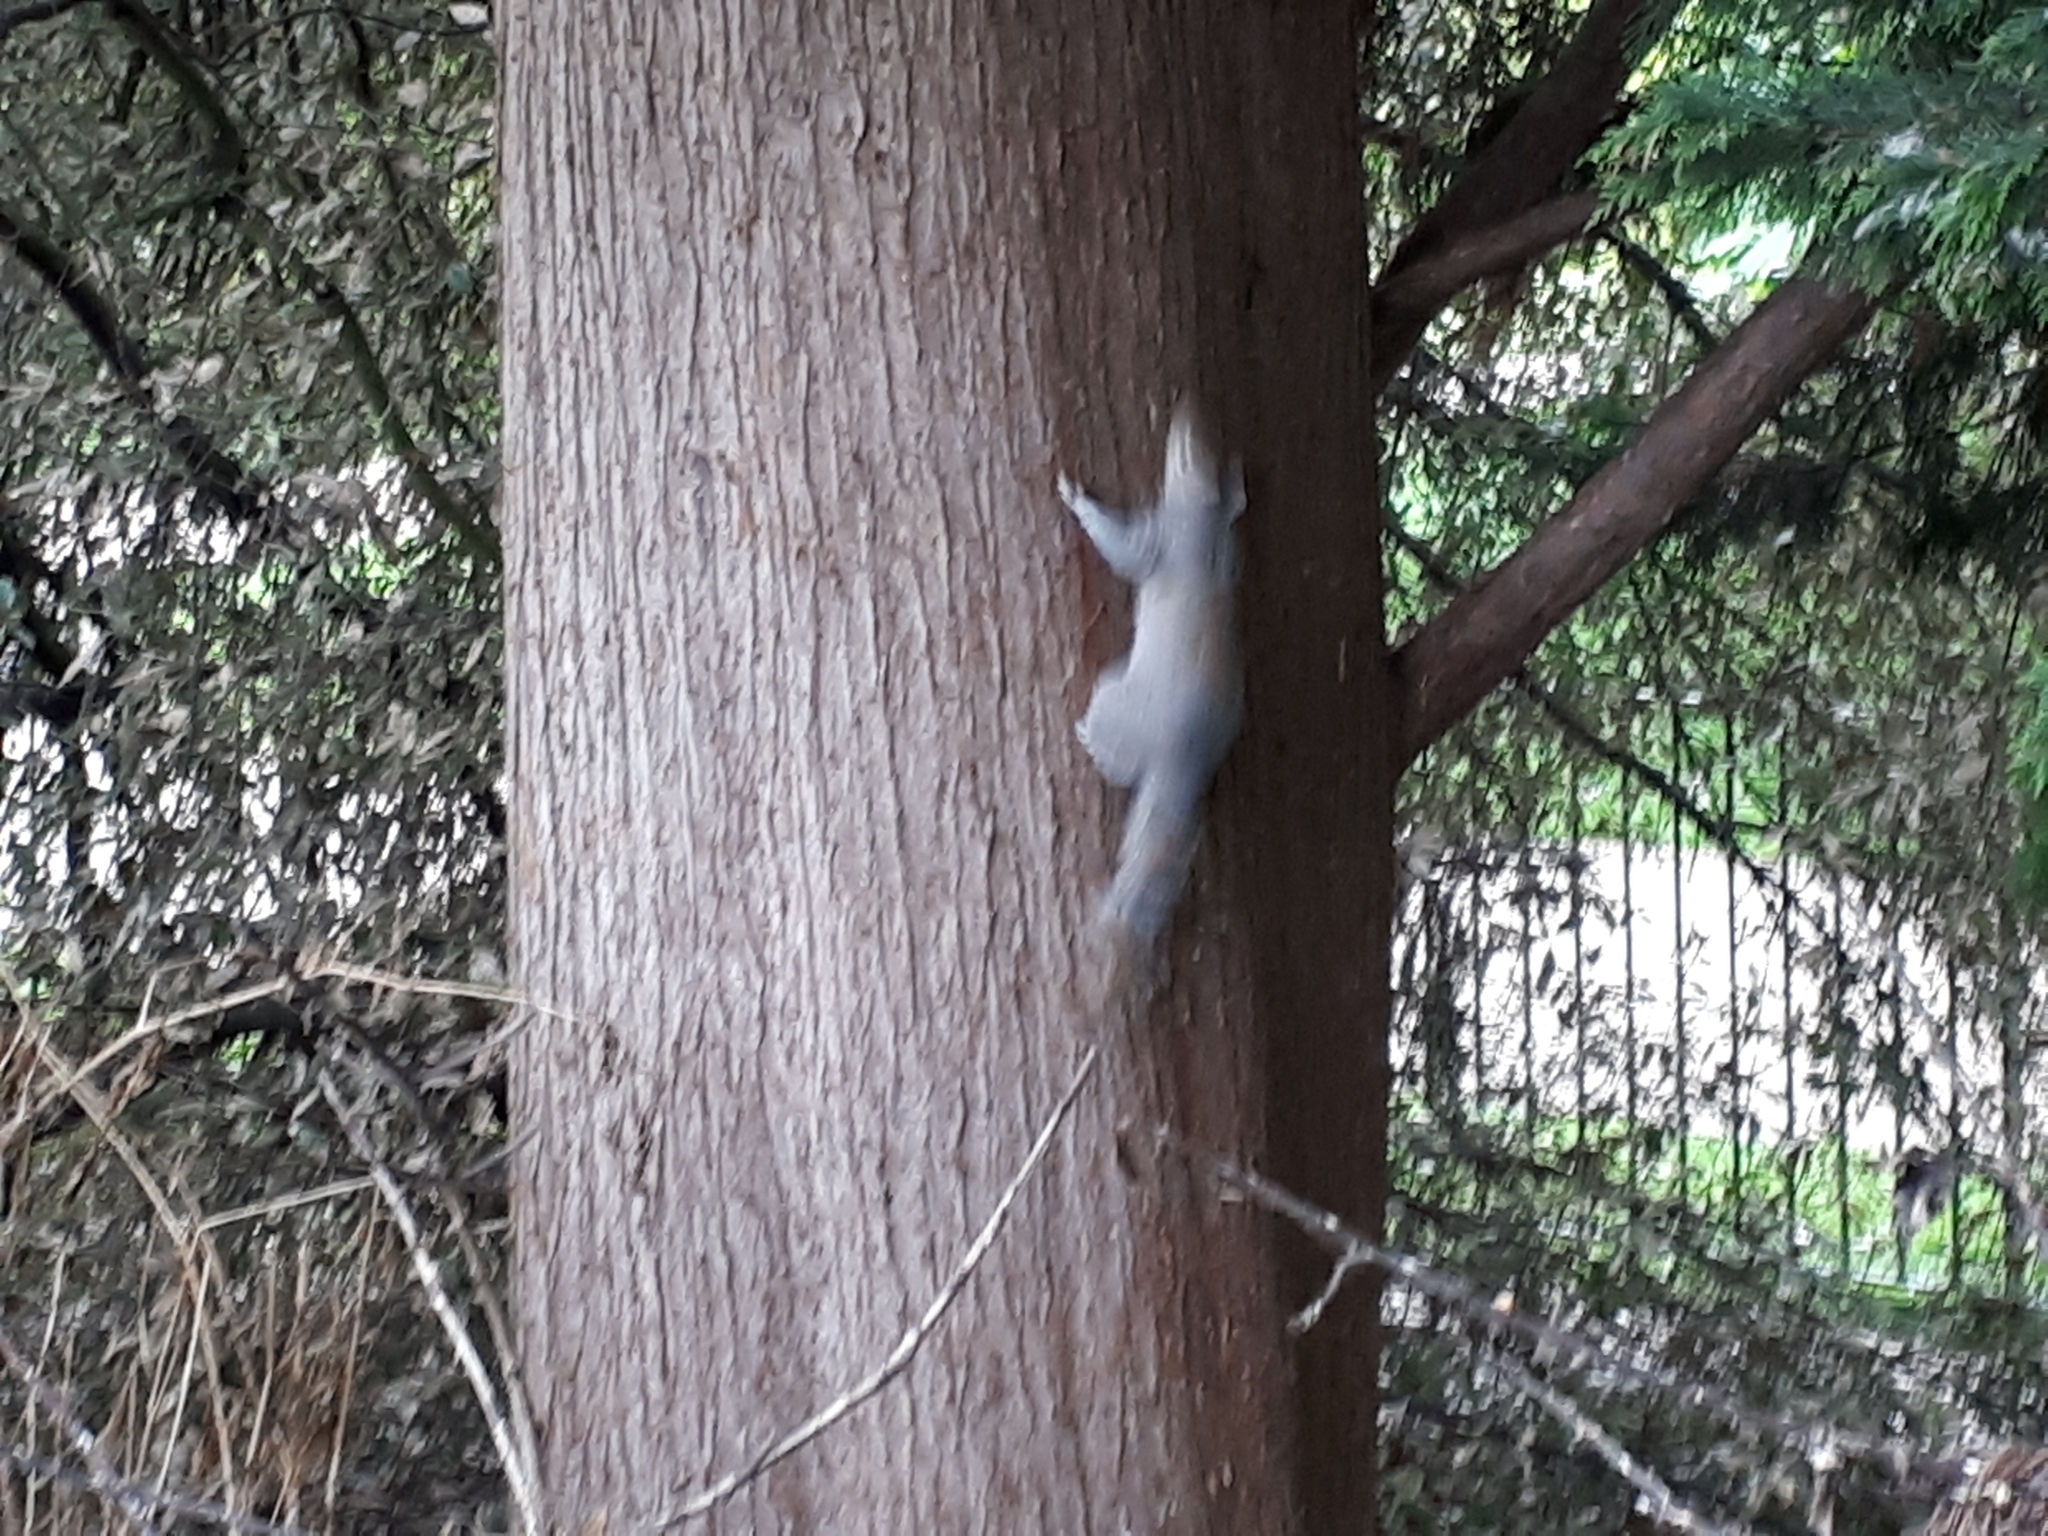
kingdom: Animalia
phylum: Chordata
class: Mammalia
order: Rodentia
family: Sciuridae
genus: Sciurus
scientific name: Sciurus carolinensis
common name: Eastern gray squirrel
